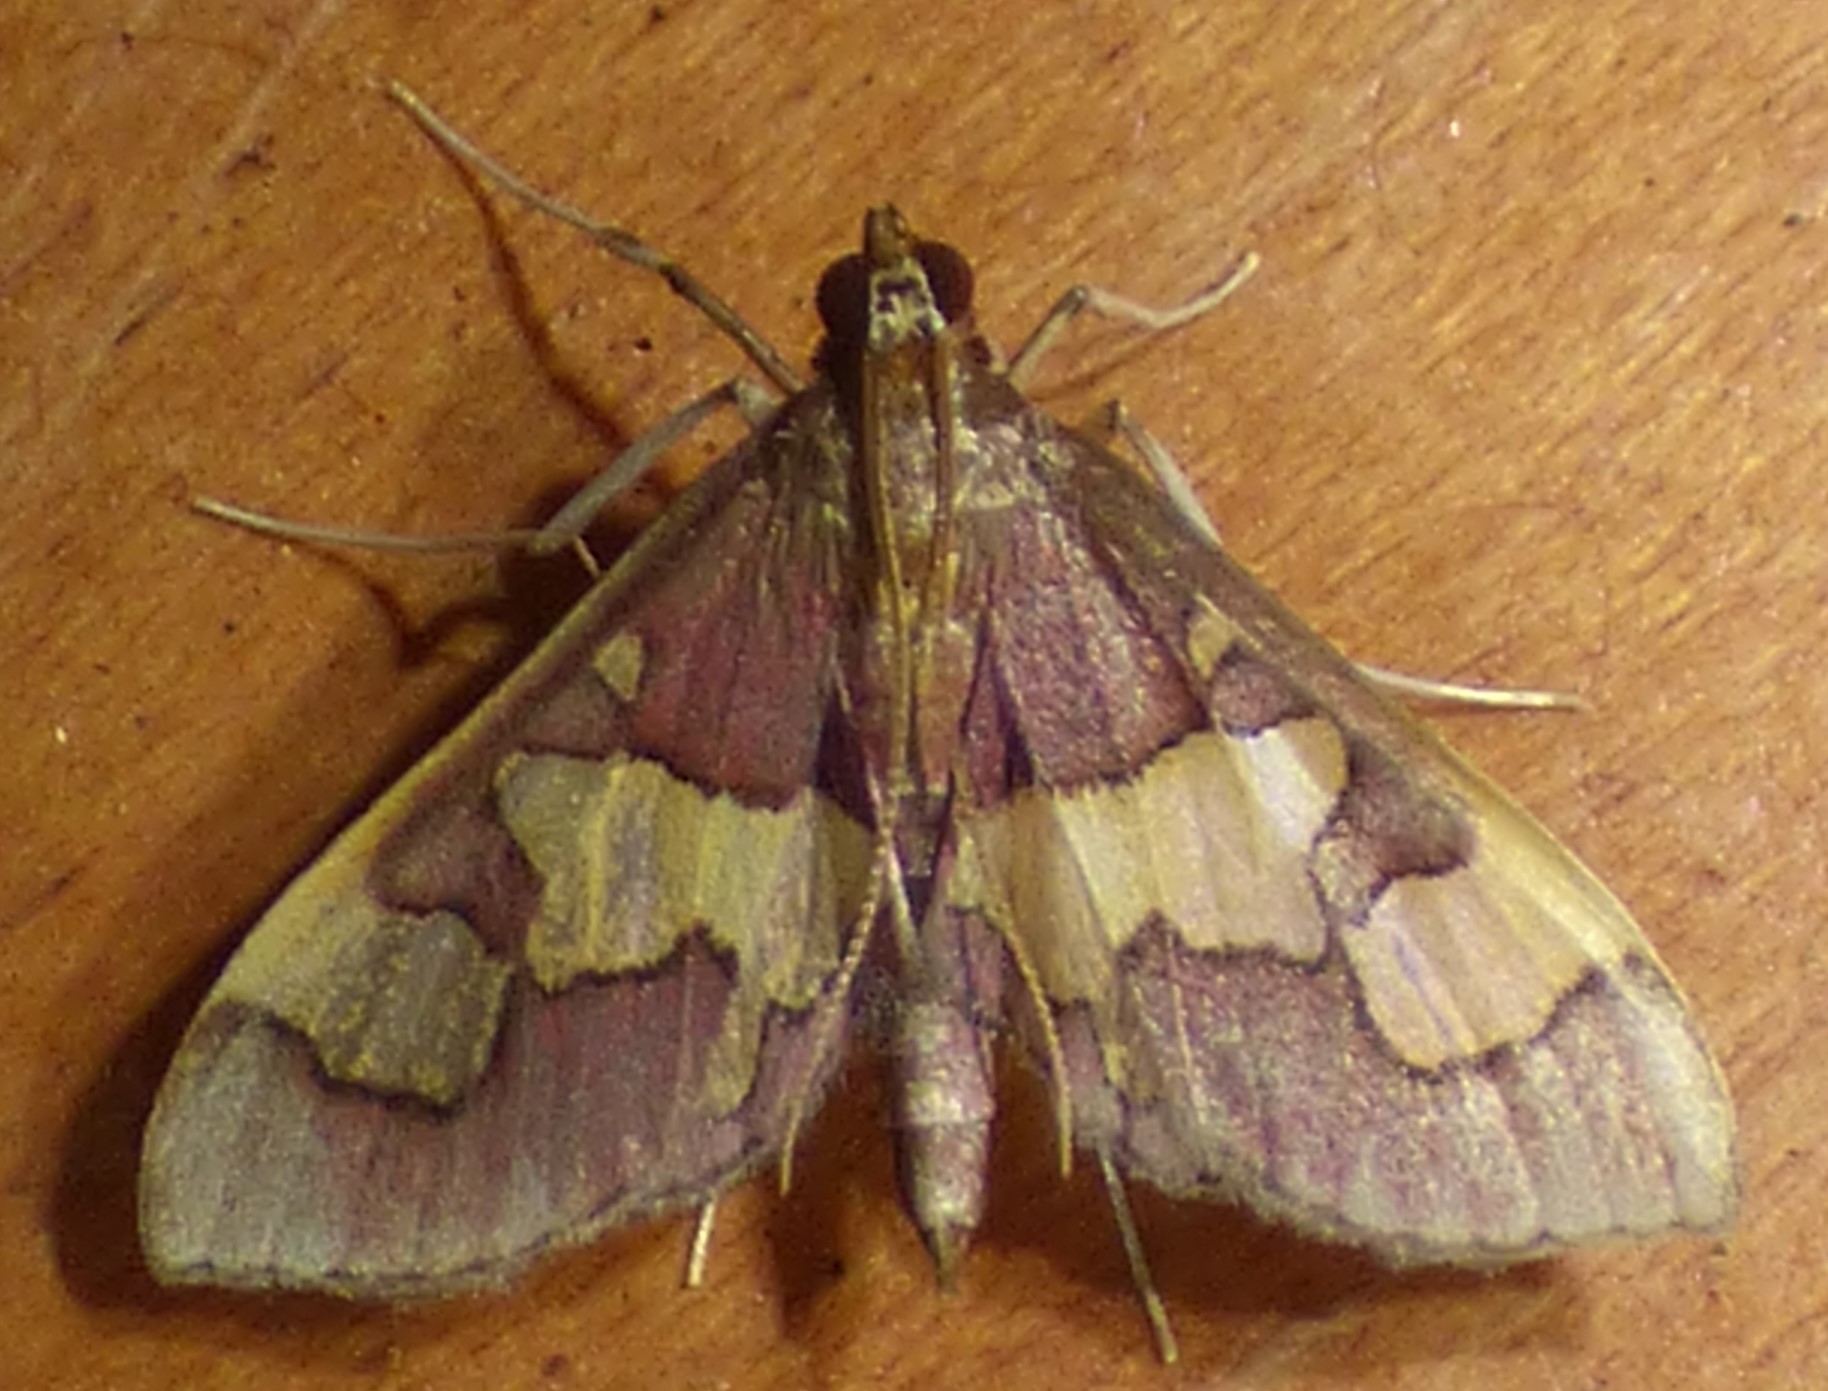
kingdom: Animalia
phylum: Arthropoda
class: Insecta
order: Lepidoptera
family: Crambidae
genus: Colomychus
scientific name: Colomychus talis
